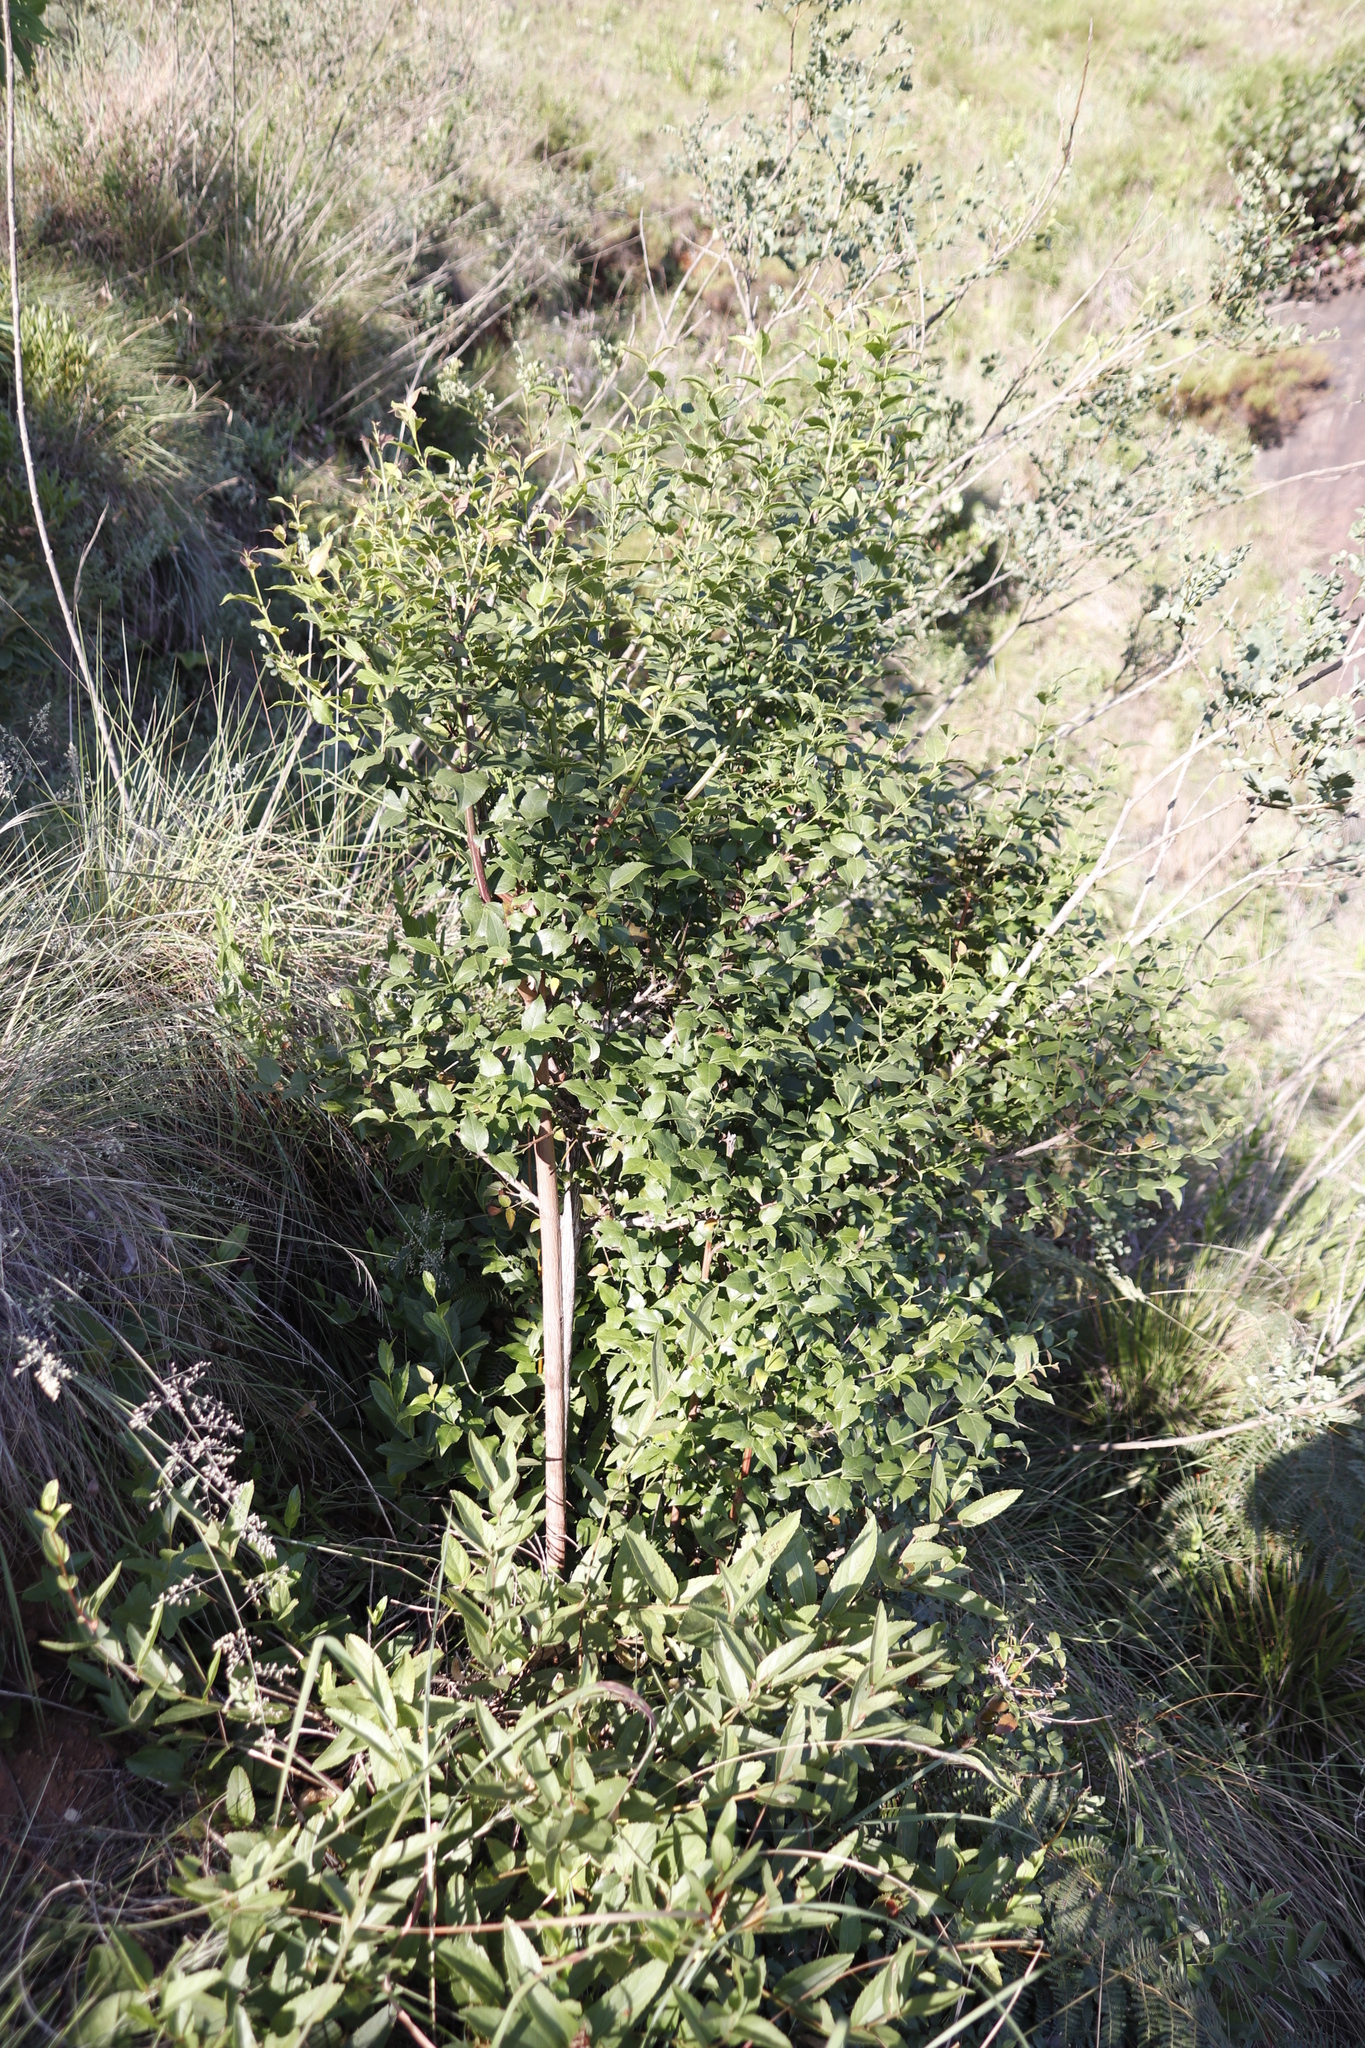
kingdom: Plantae
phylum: Tracheophyta
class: Magnoliopsida
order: Lamiales
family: Stilbaceae
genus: Halleria
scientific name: Halleria lucida
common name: Tree fuschia
